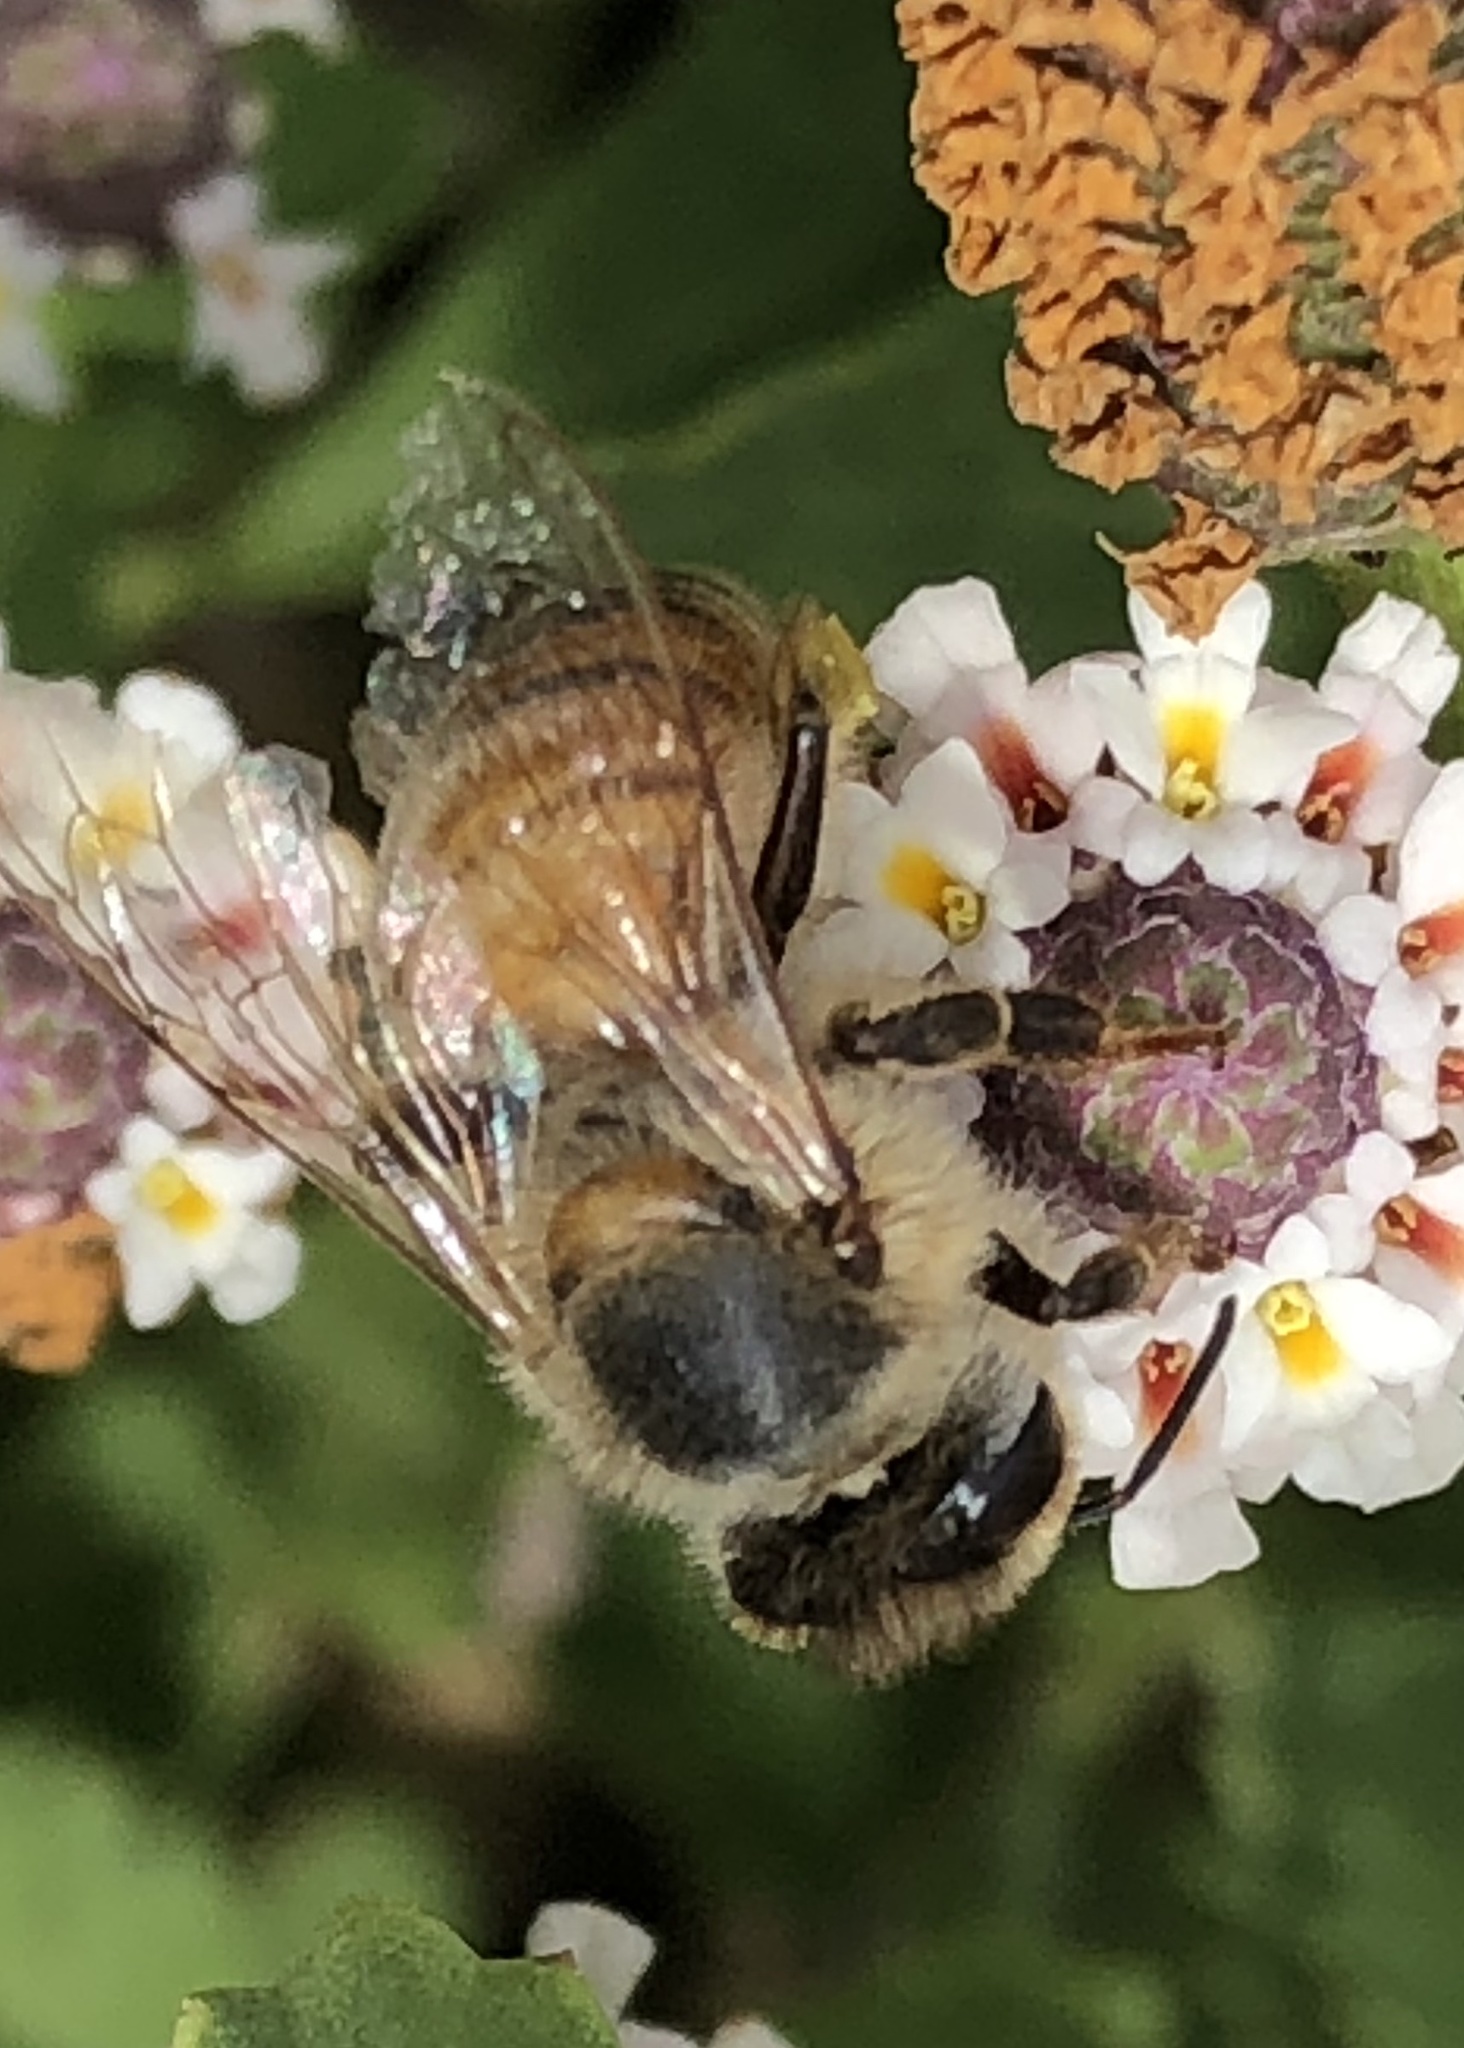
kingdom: Animalia
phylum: Arthropoda
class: Insecta
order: Hymenoptera
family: Apidae
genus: Apis
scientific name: Apis mellifera
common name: Honey bee
